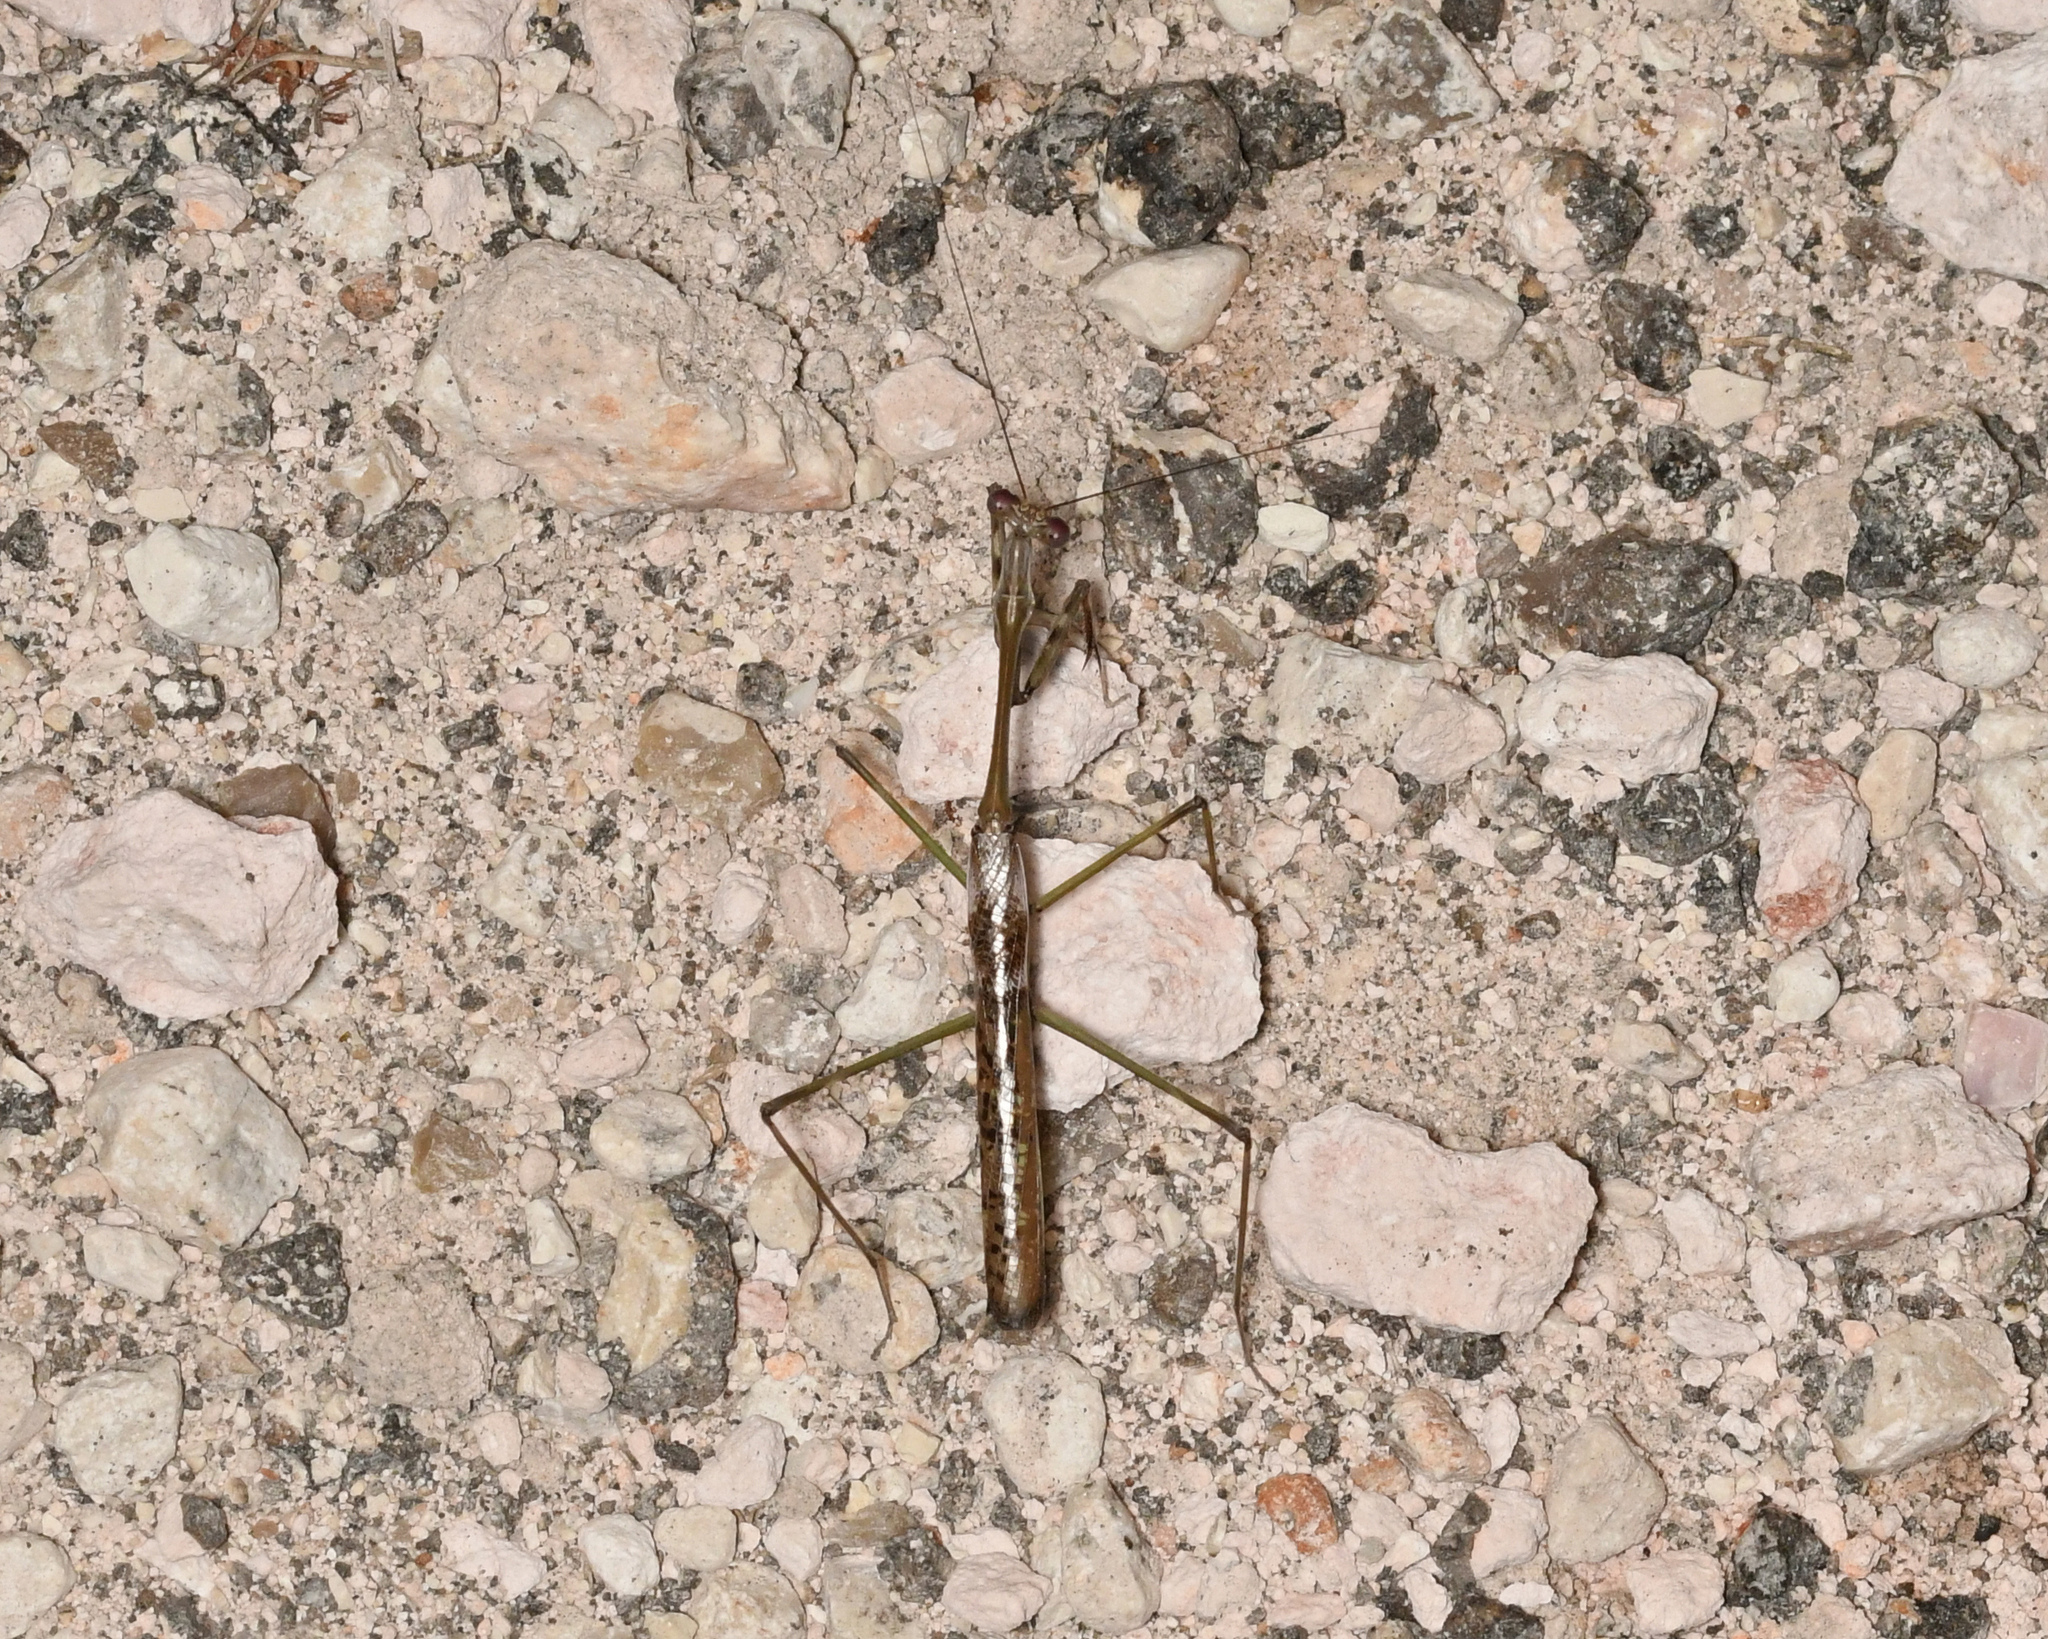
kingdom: Animalia
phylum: Arthropoda
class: Insecta
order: Mantodea
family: Mantidae
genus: Stagmomantis
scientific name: Stagmomantis domingensis
